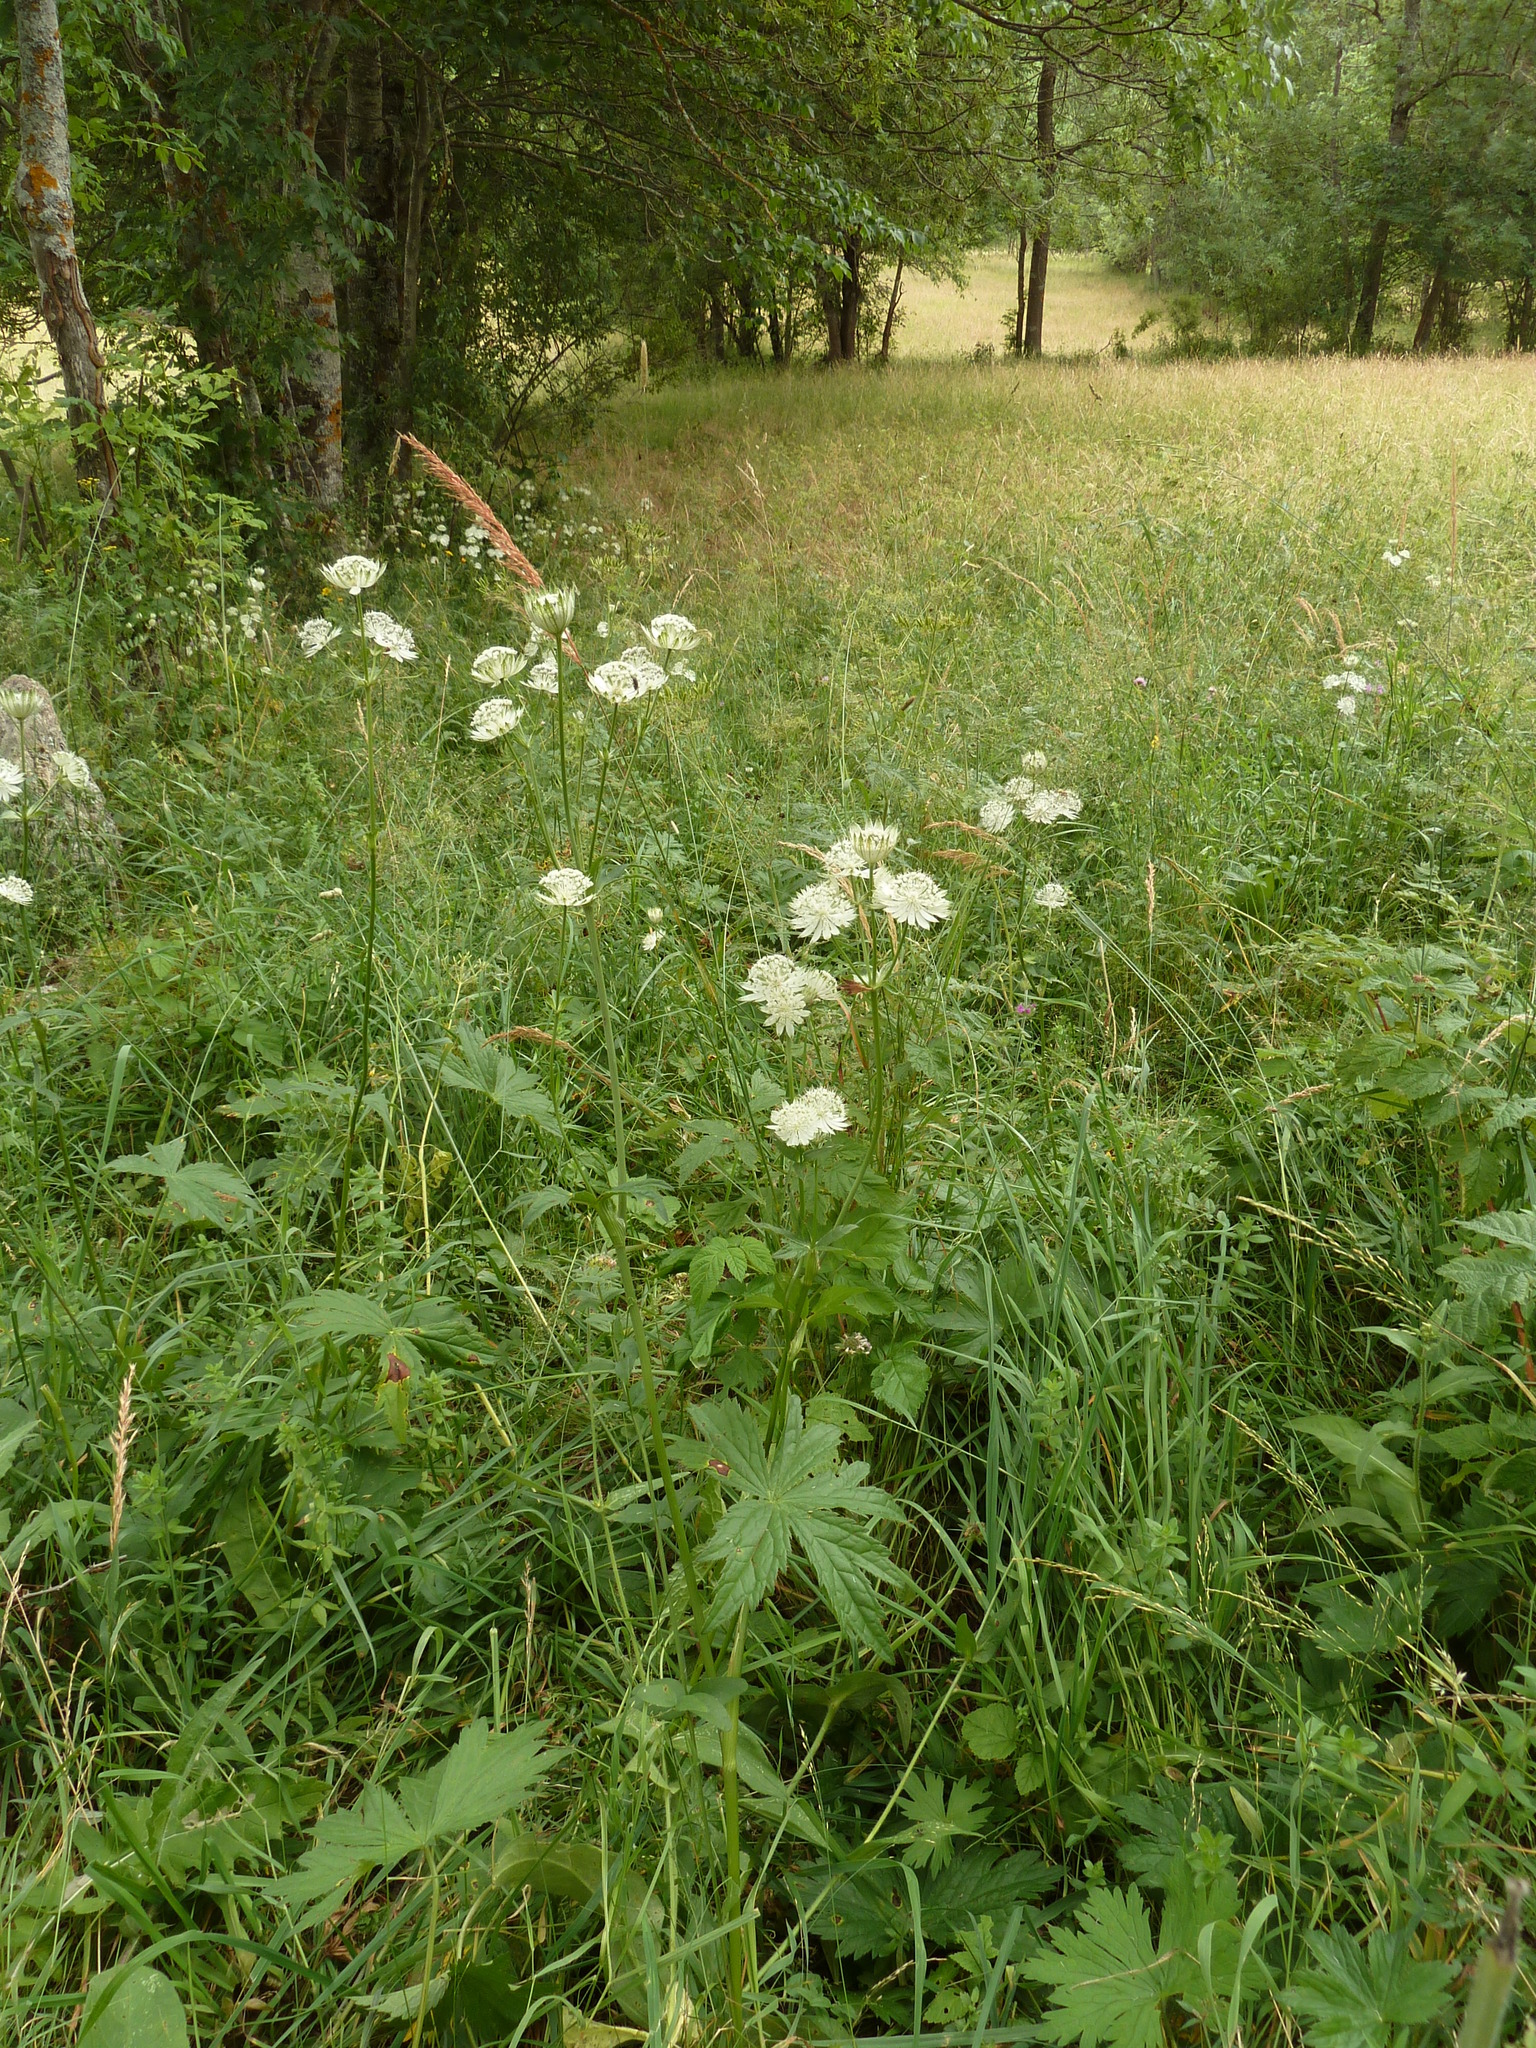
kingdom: Plantae
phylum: Tracheophyta
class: Magnoliopsida
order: Apiales
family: Apiaceae
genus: Astrantia
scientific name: Astrantia major
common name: Greater masterwort
